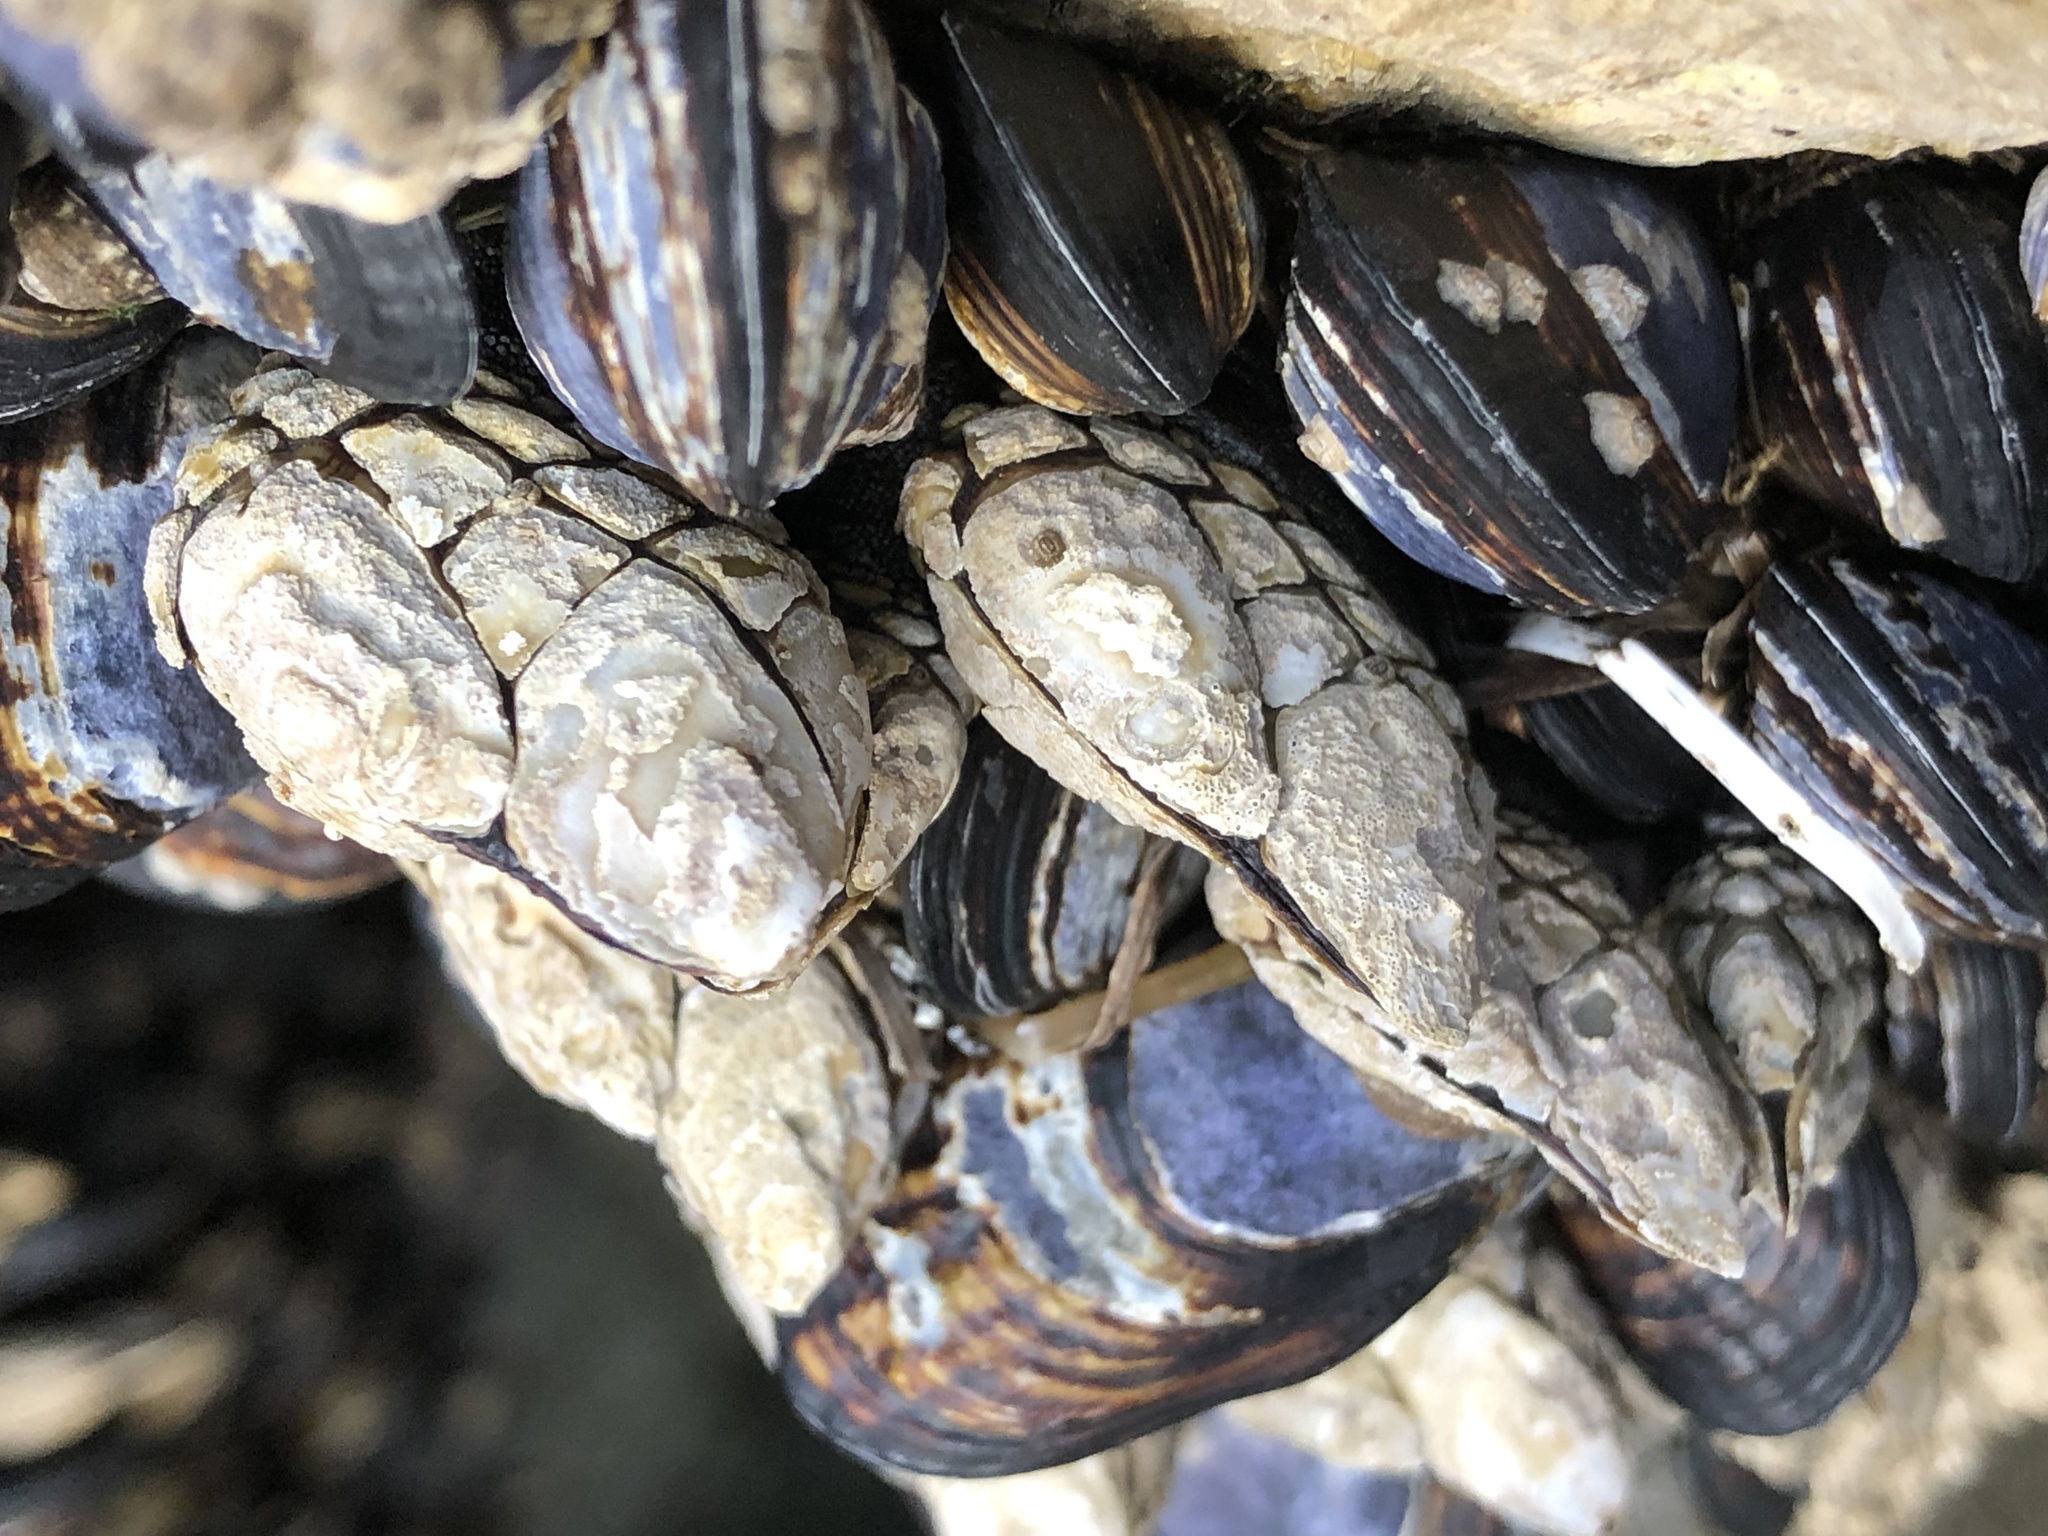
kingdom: Animalia
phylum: Arthropoda
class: Maxillopoda
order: Pedunculata
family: Pollicipedidae
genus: Pollicipes
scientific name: Pollicipes polymerus
